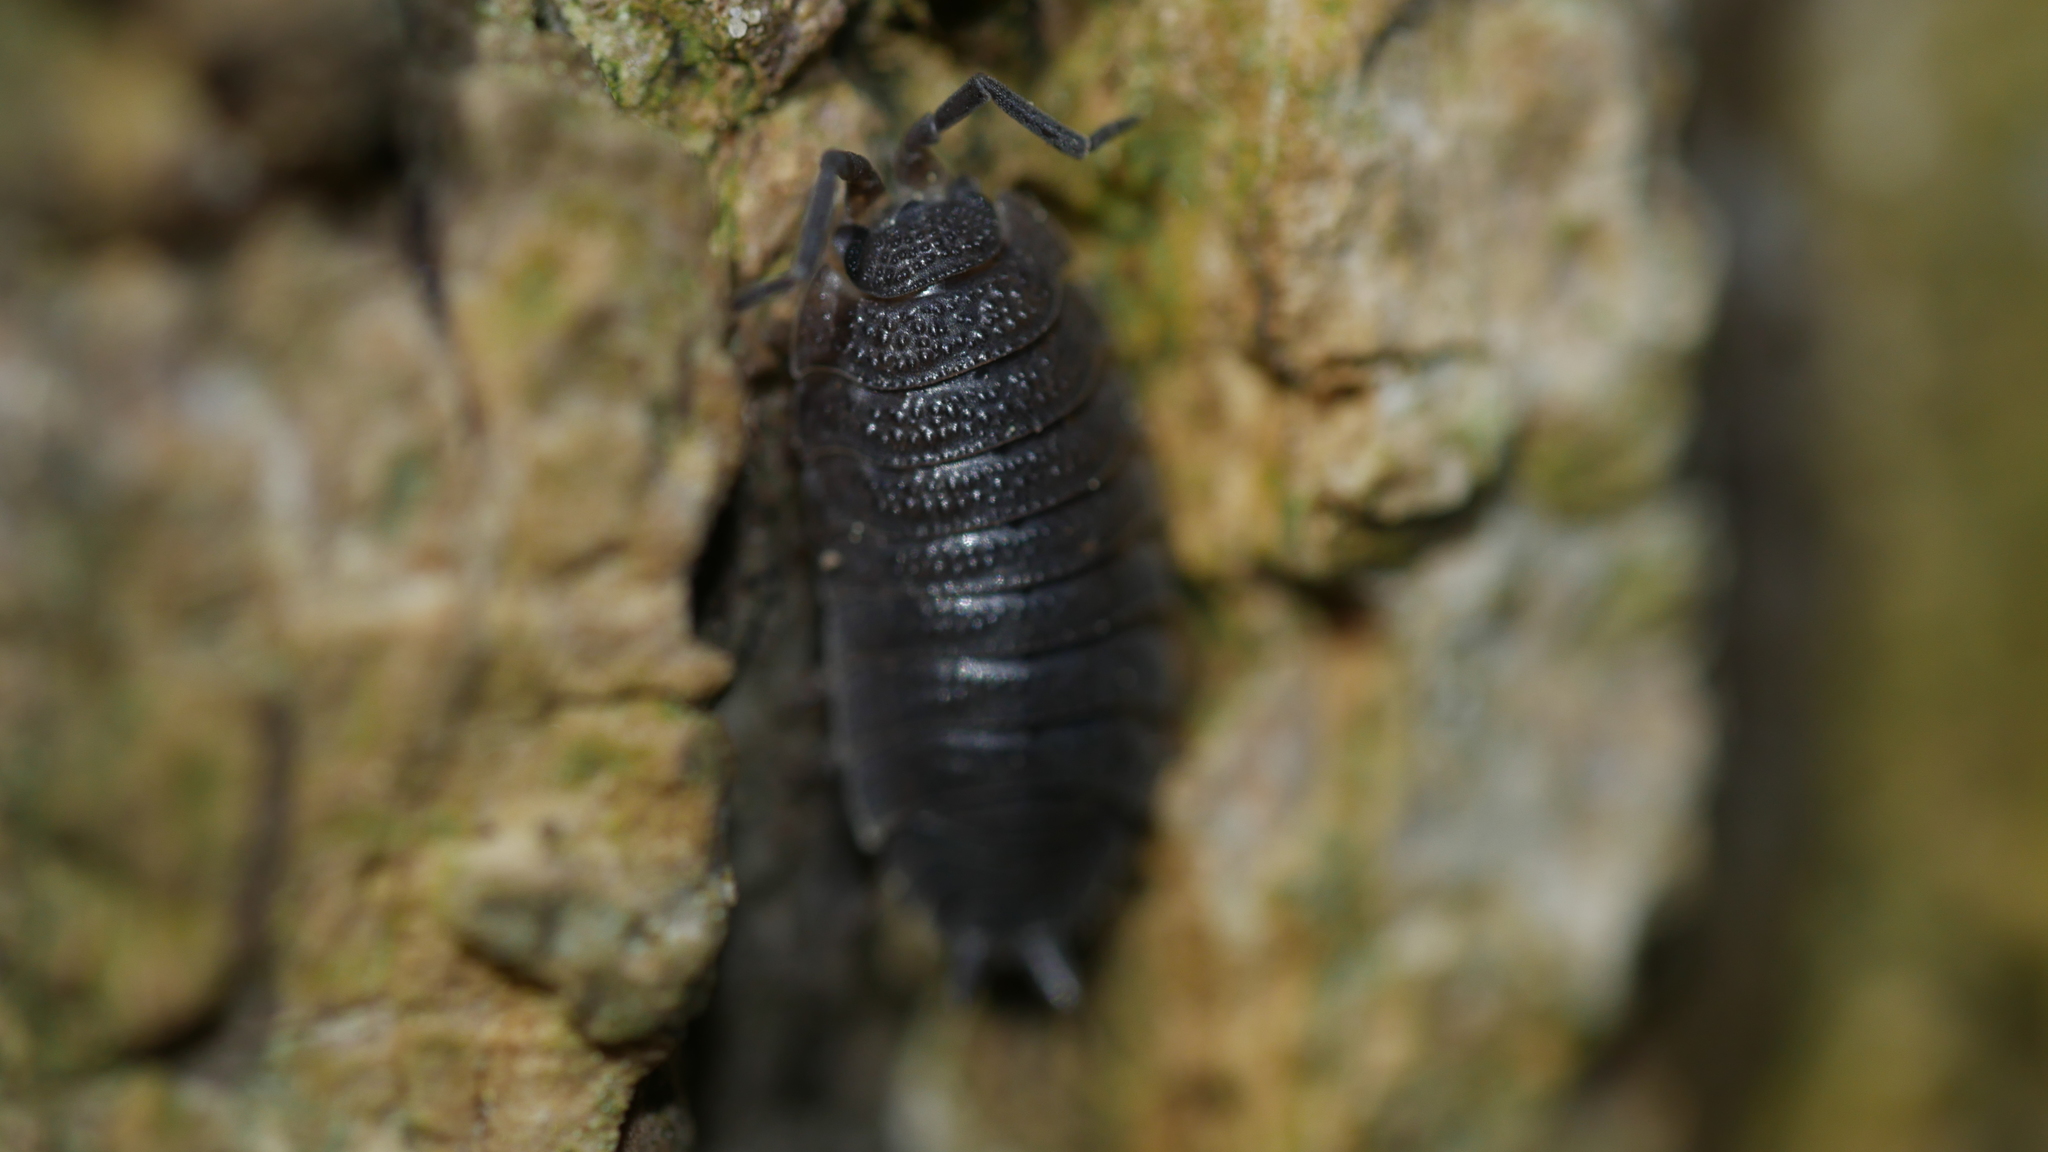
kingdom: Animalia
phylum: Arthropoda
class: Malacostraca
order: Isopoda
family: Porcellionidae
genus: Porcellio
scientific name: Porcellio scaber
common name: Common rough woodlouse
